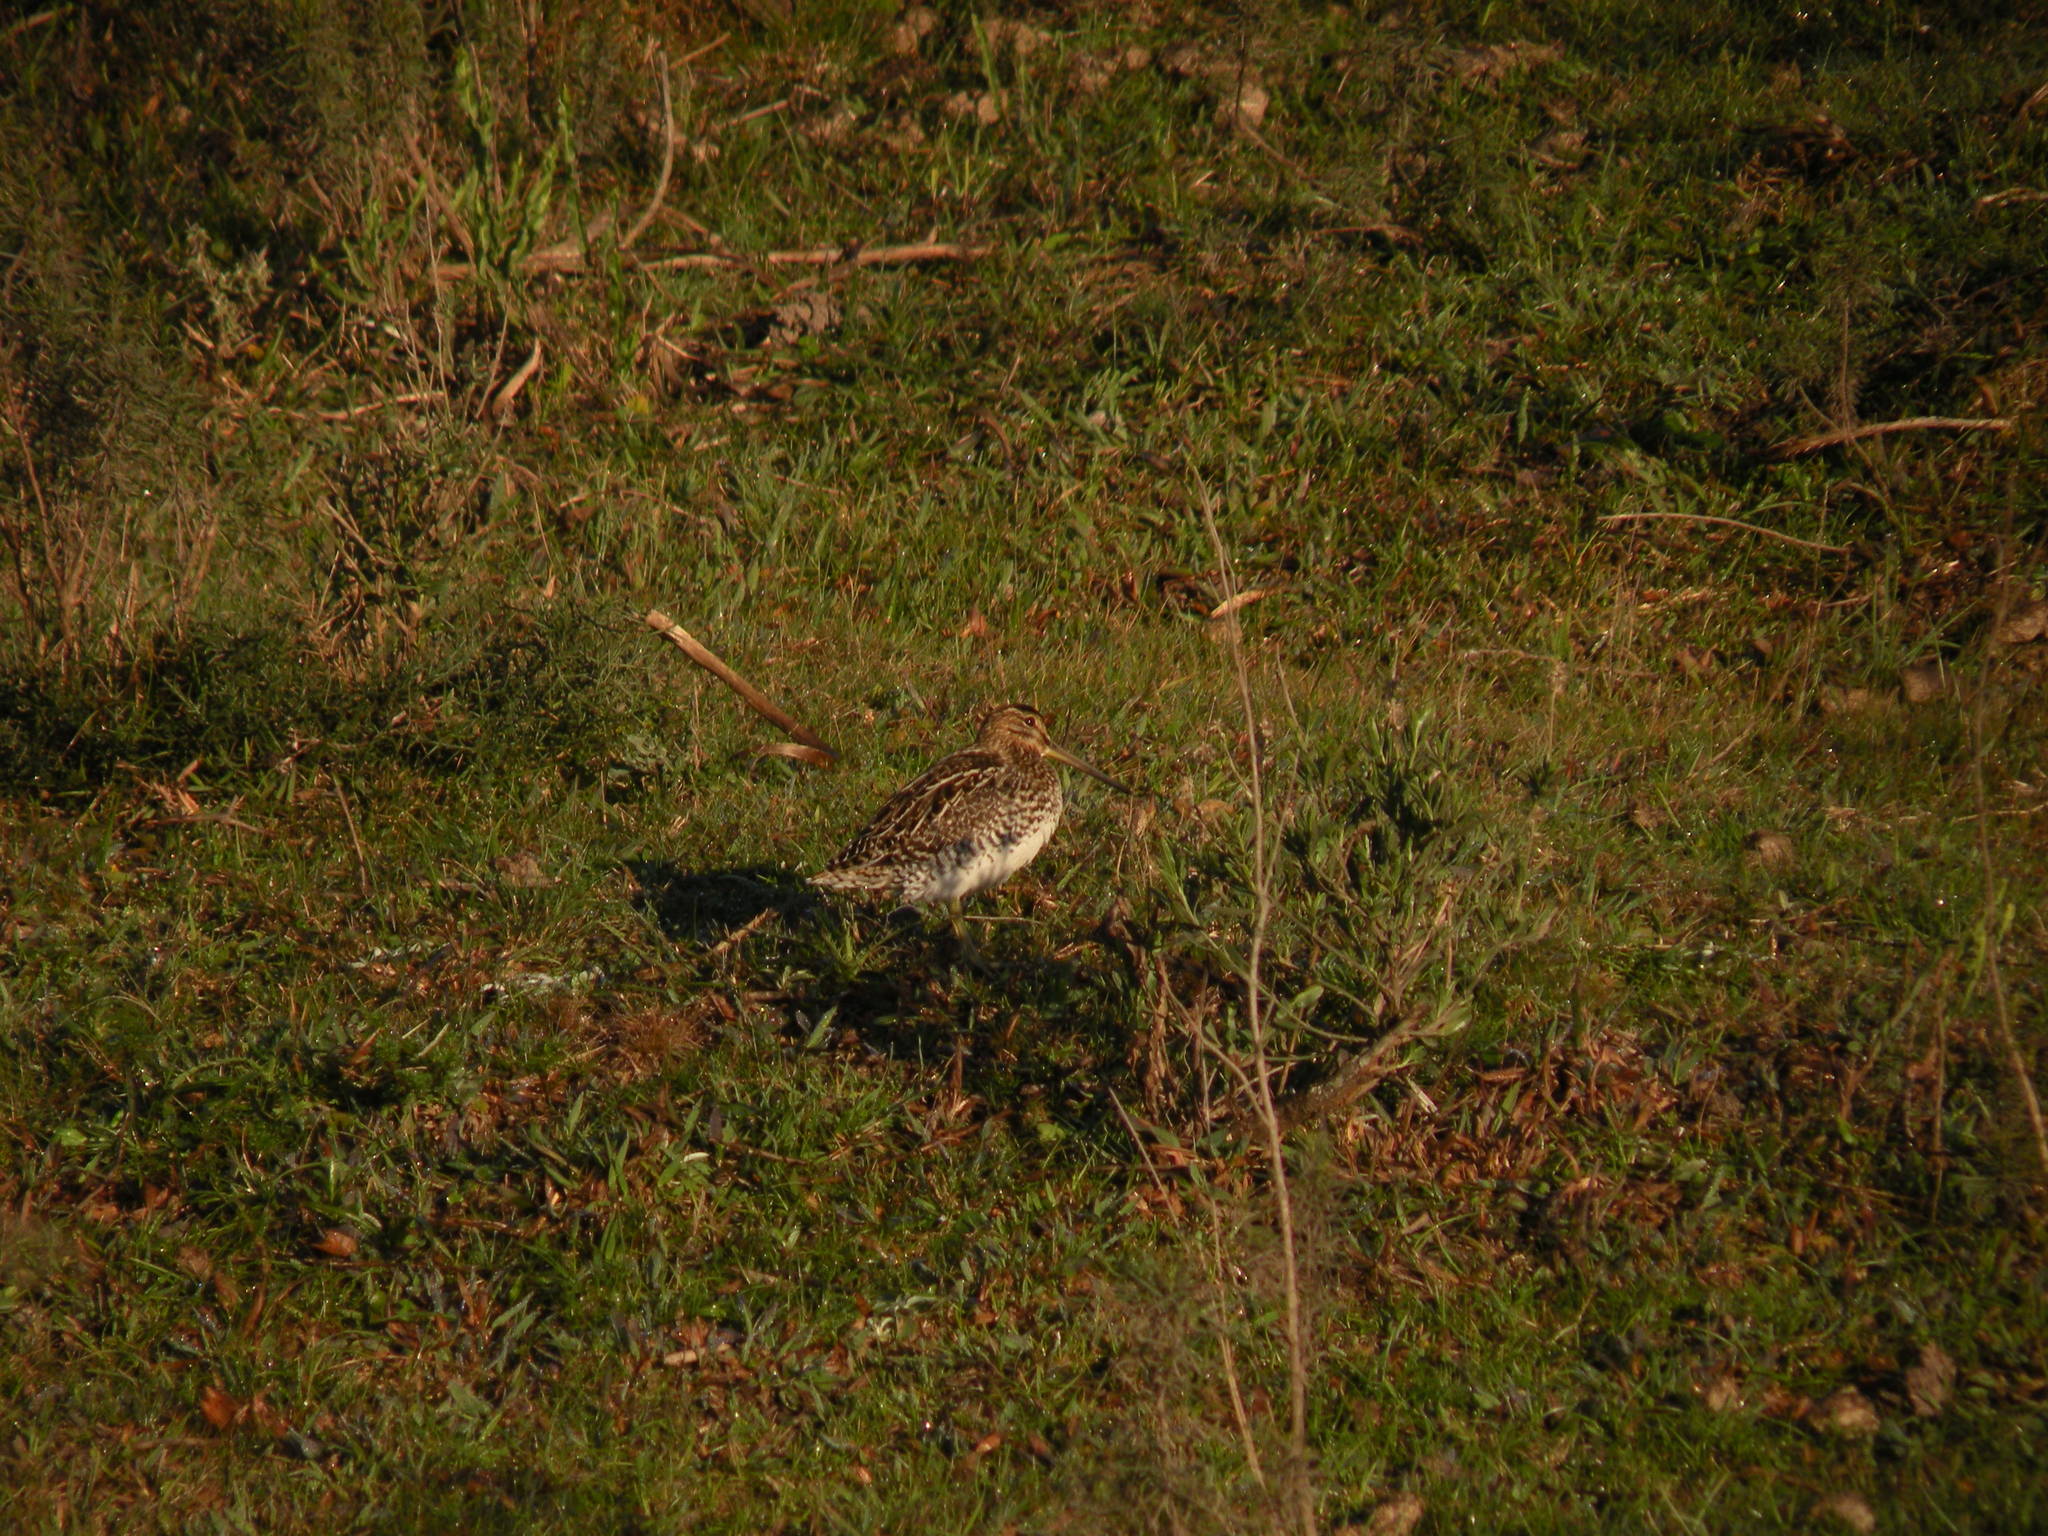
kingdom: Animalia
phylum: Chordata
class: Aves
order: Charadriiformes
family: Scolopacidae
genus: Gallinago
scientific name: Gallinago paraguaiae
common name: South american snipe
